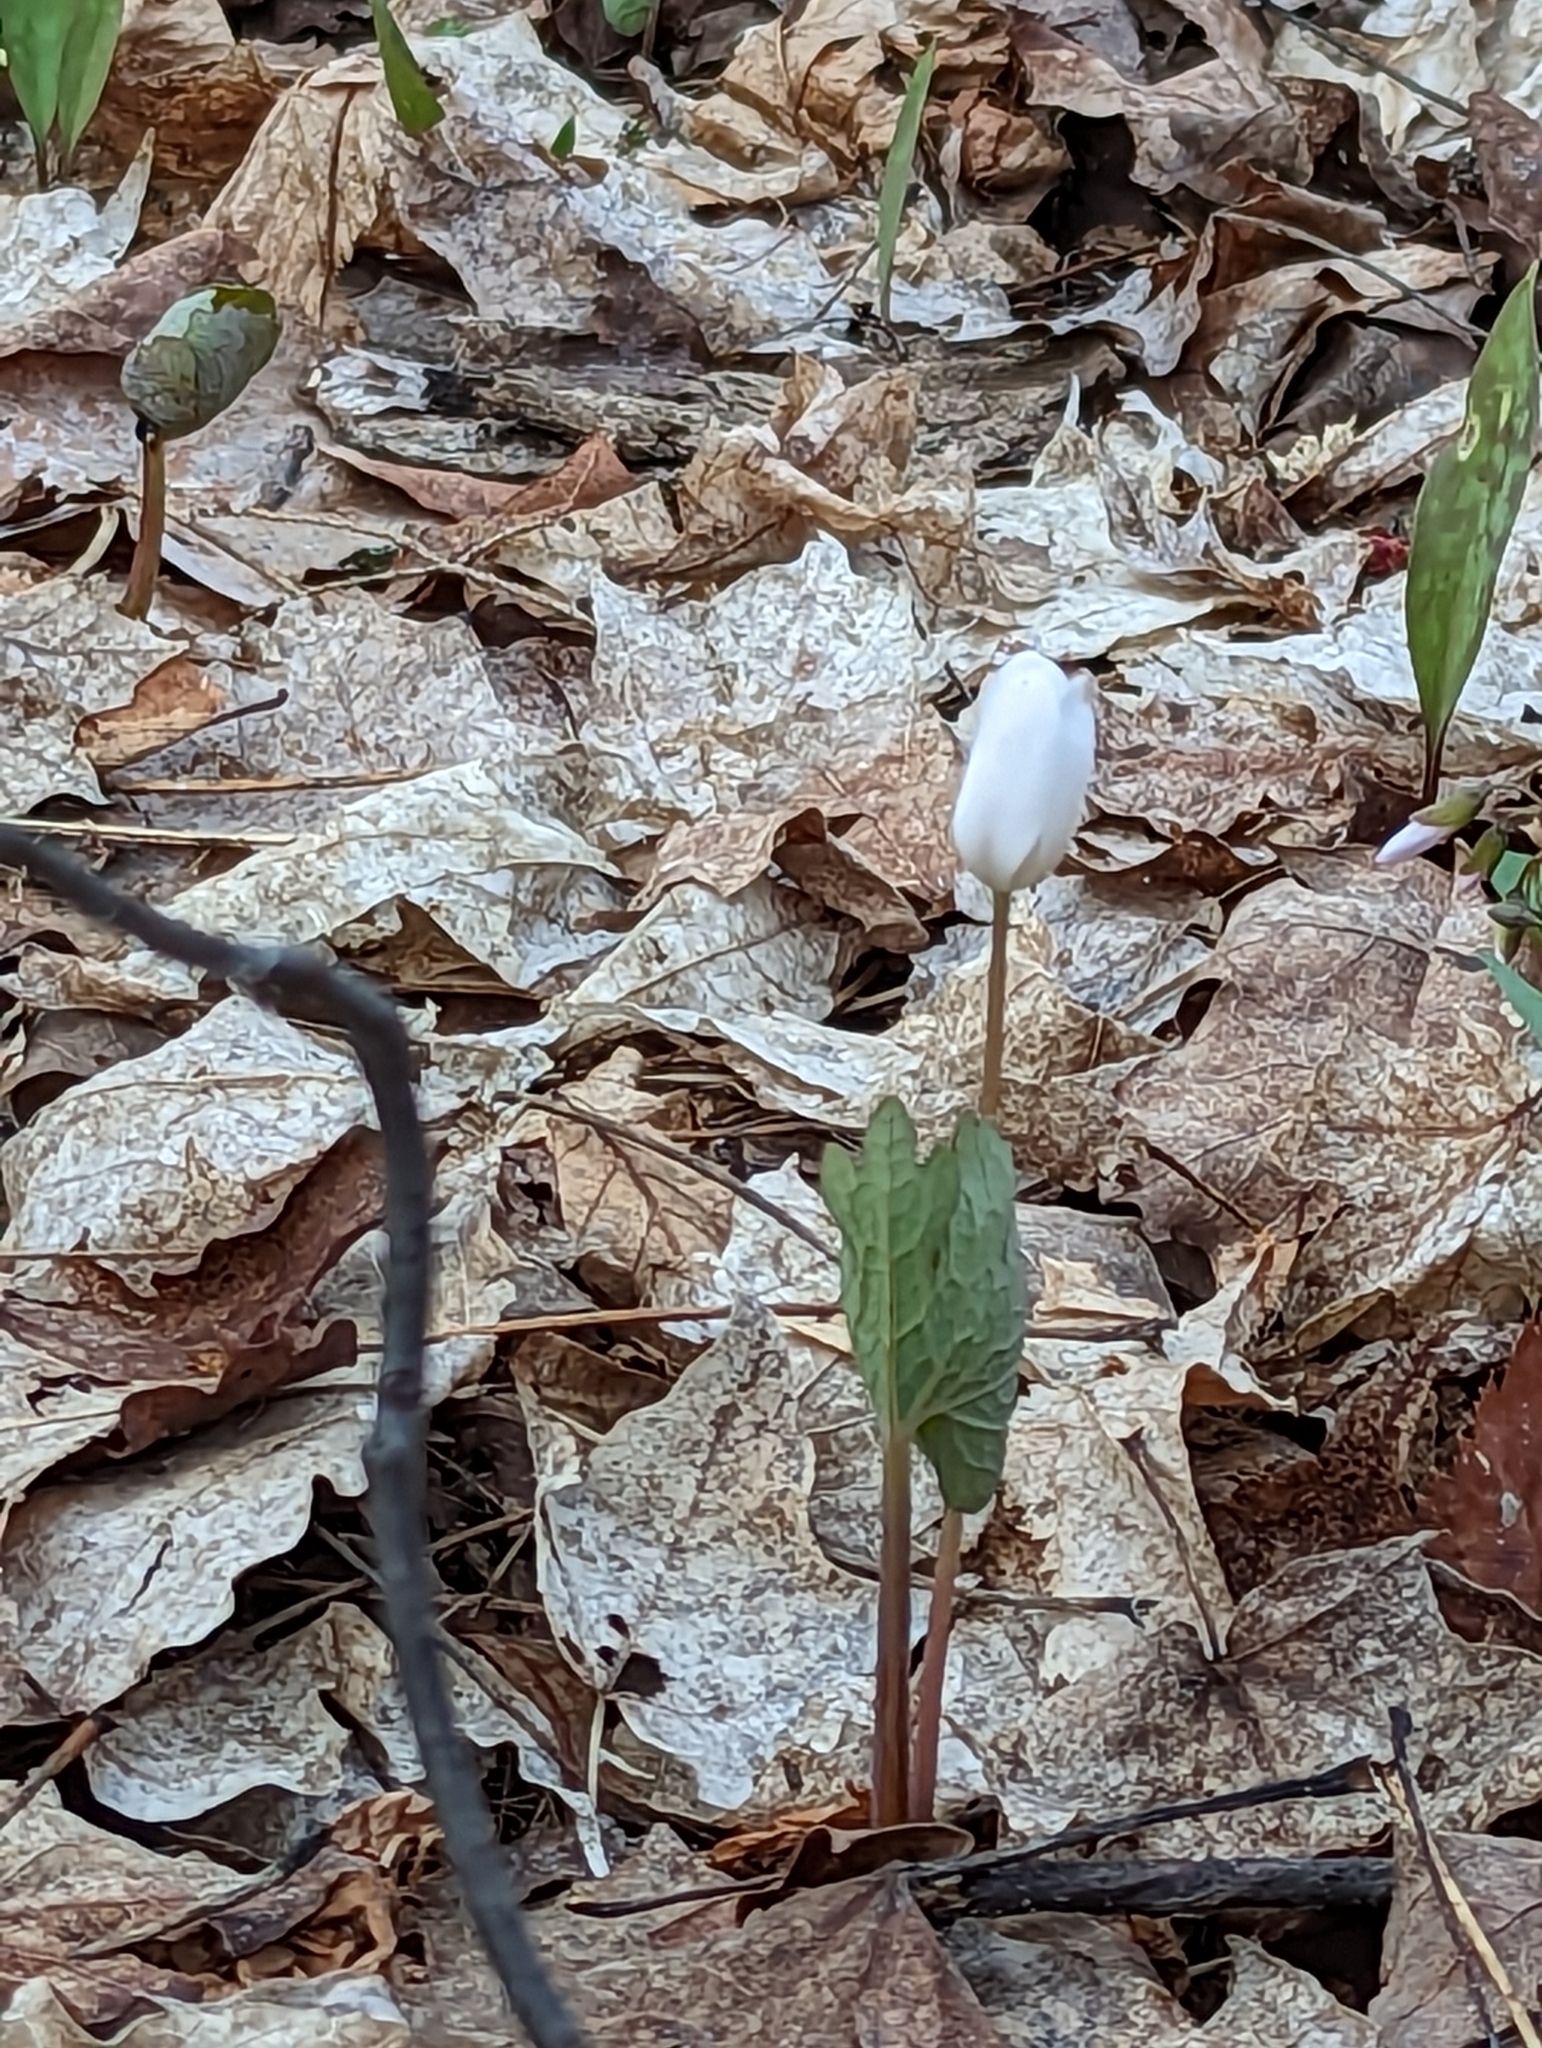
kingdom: Plantae
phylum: Tracheophyta
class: Magnoliopsida
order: Ranunculales
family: Papaveraceae
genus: Sanguinaria
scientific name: Sanguinaria canadensis
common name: Bloodroot
